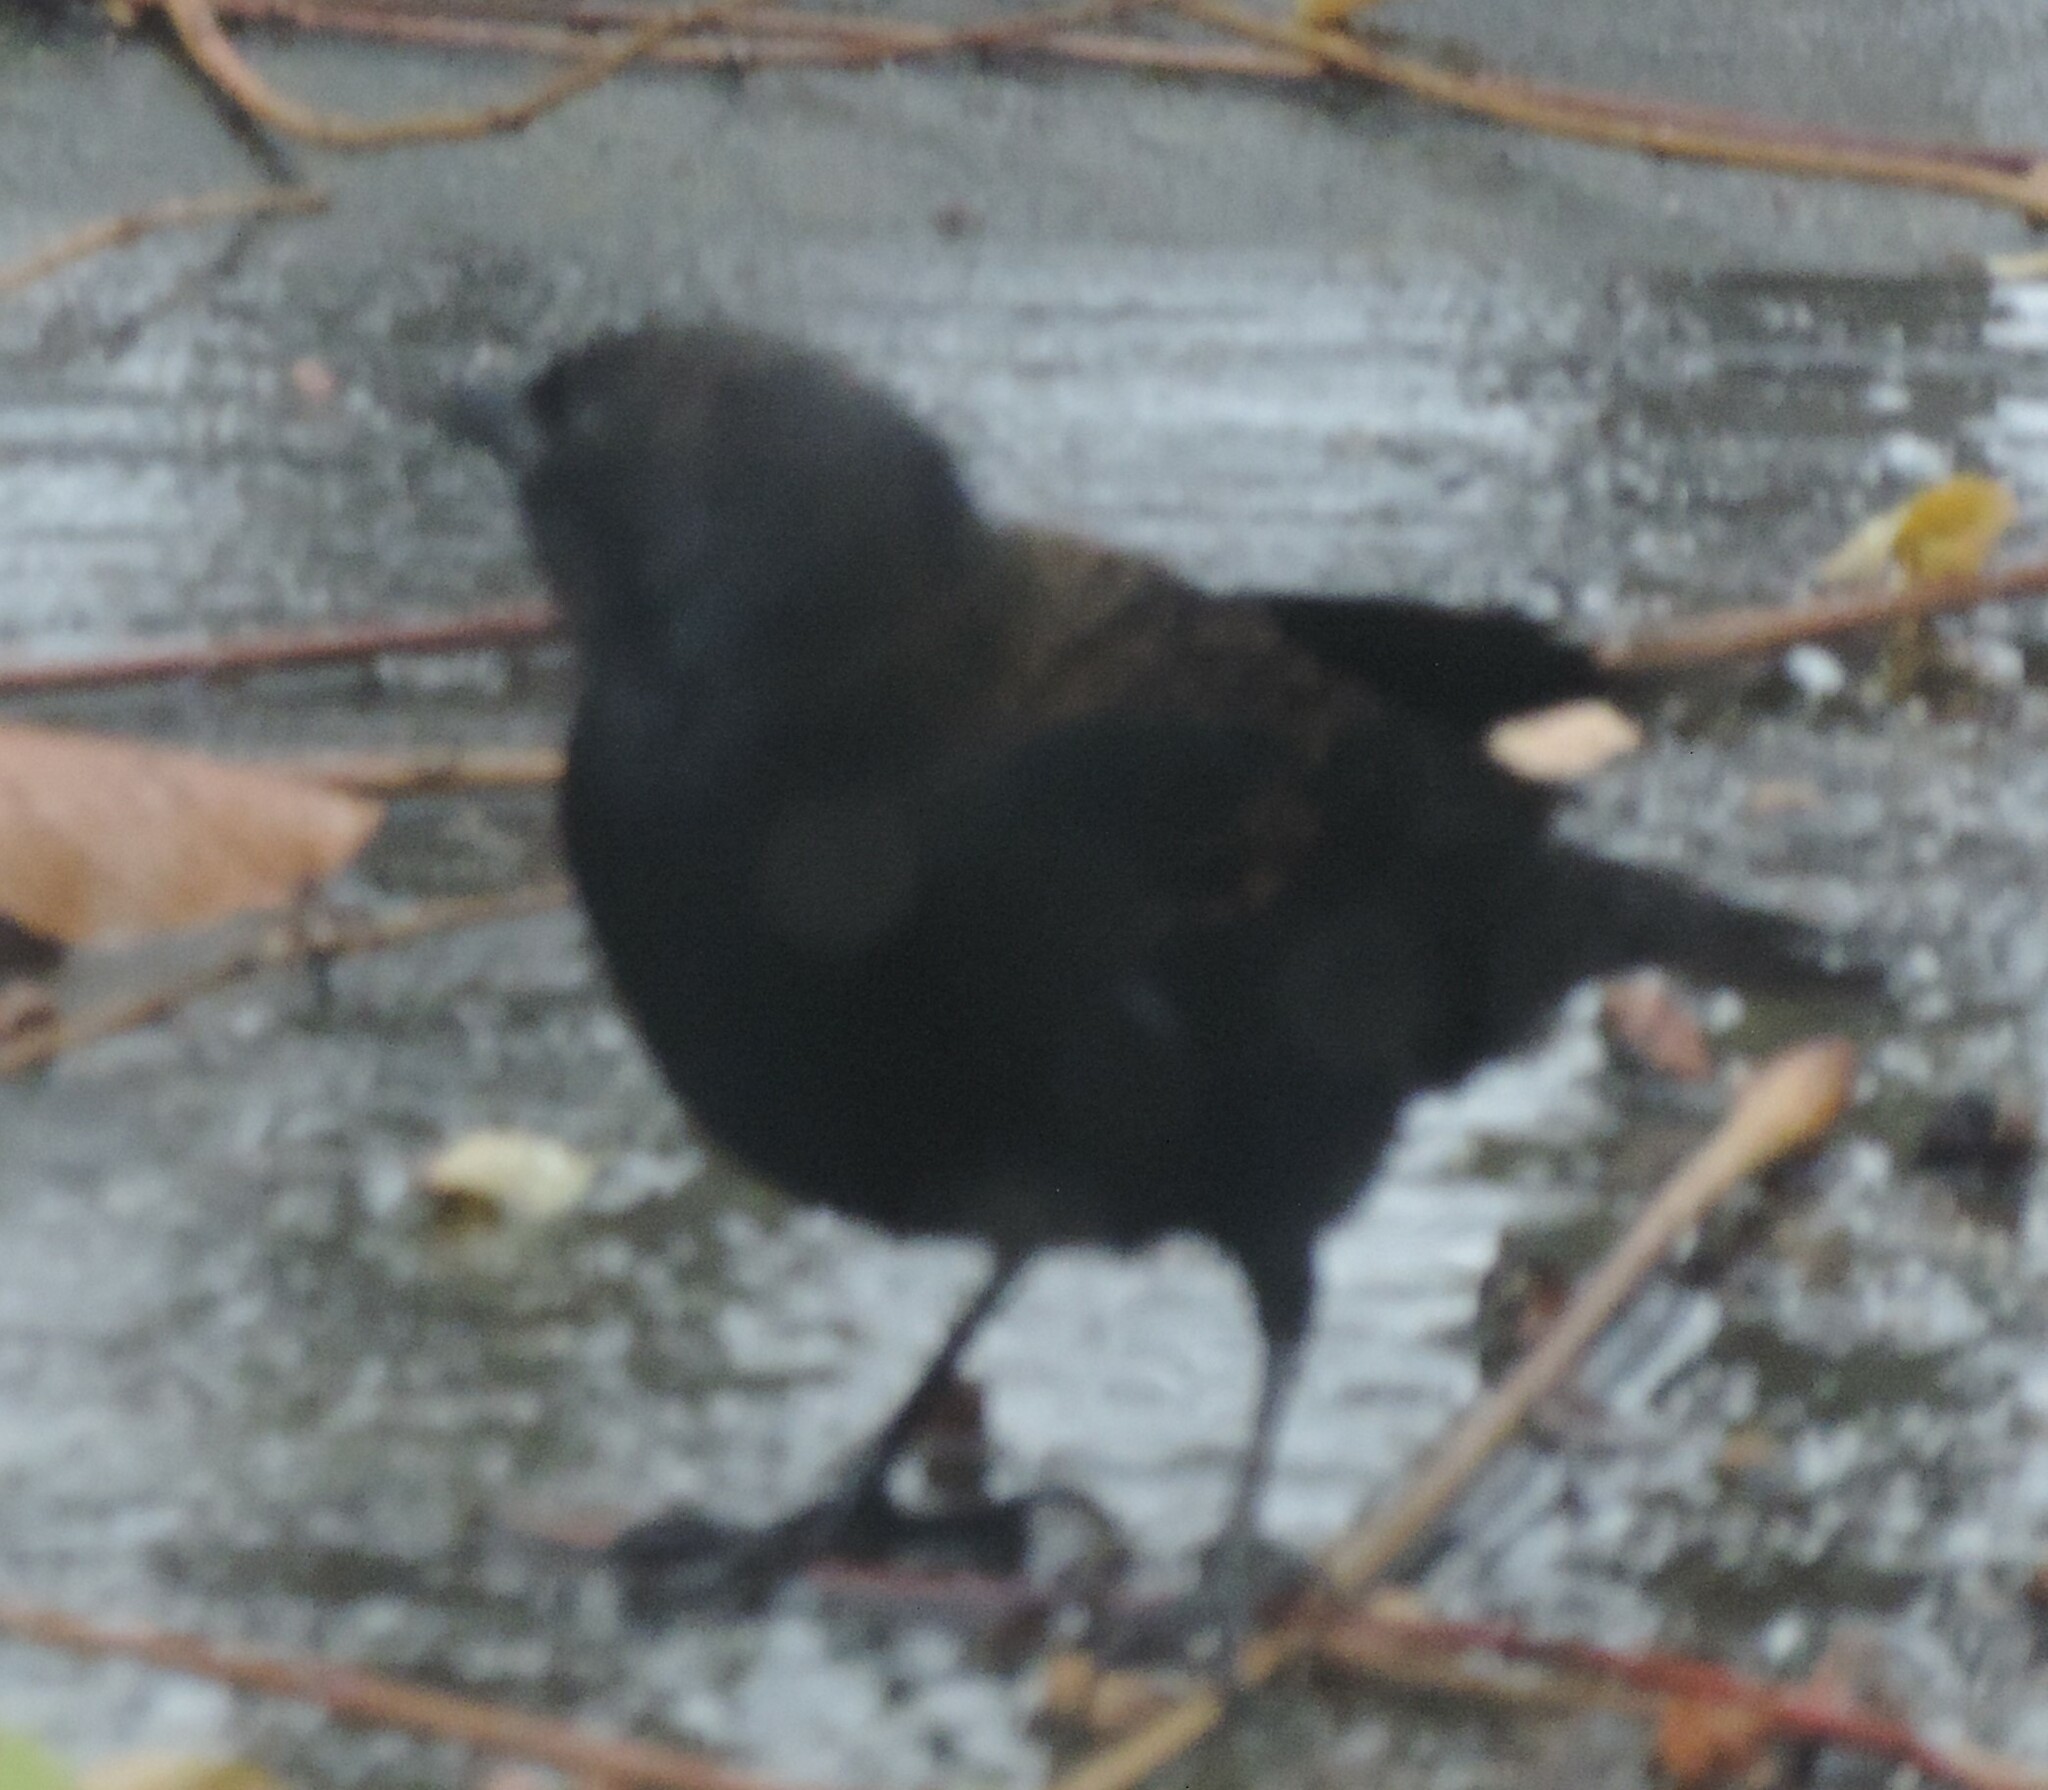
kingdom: Animalia
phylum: Chordata
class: Aves
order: Passeriformes
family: Icteridae
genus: Agelaius
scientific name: Agelaius phoeniceus
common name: Red-winged blackbird
